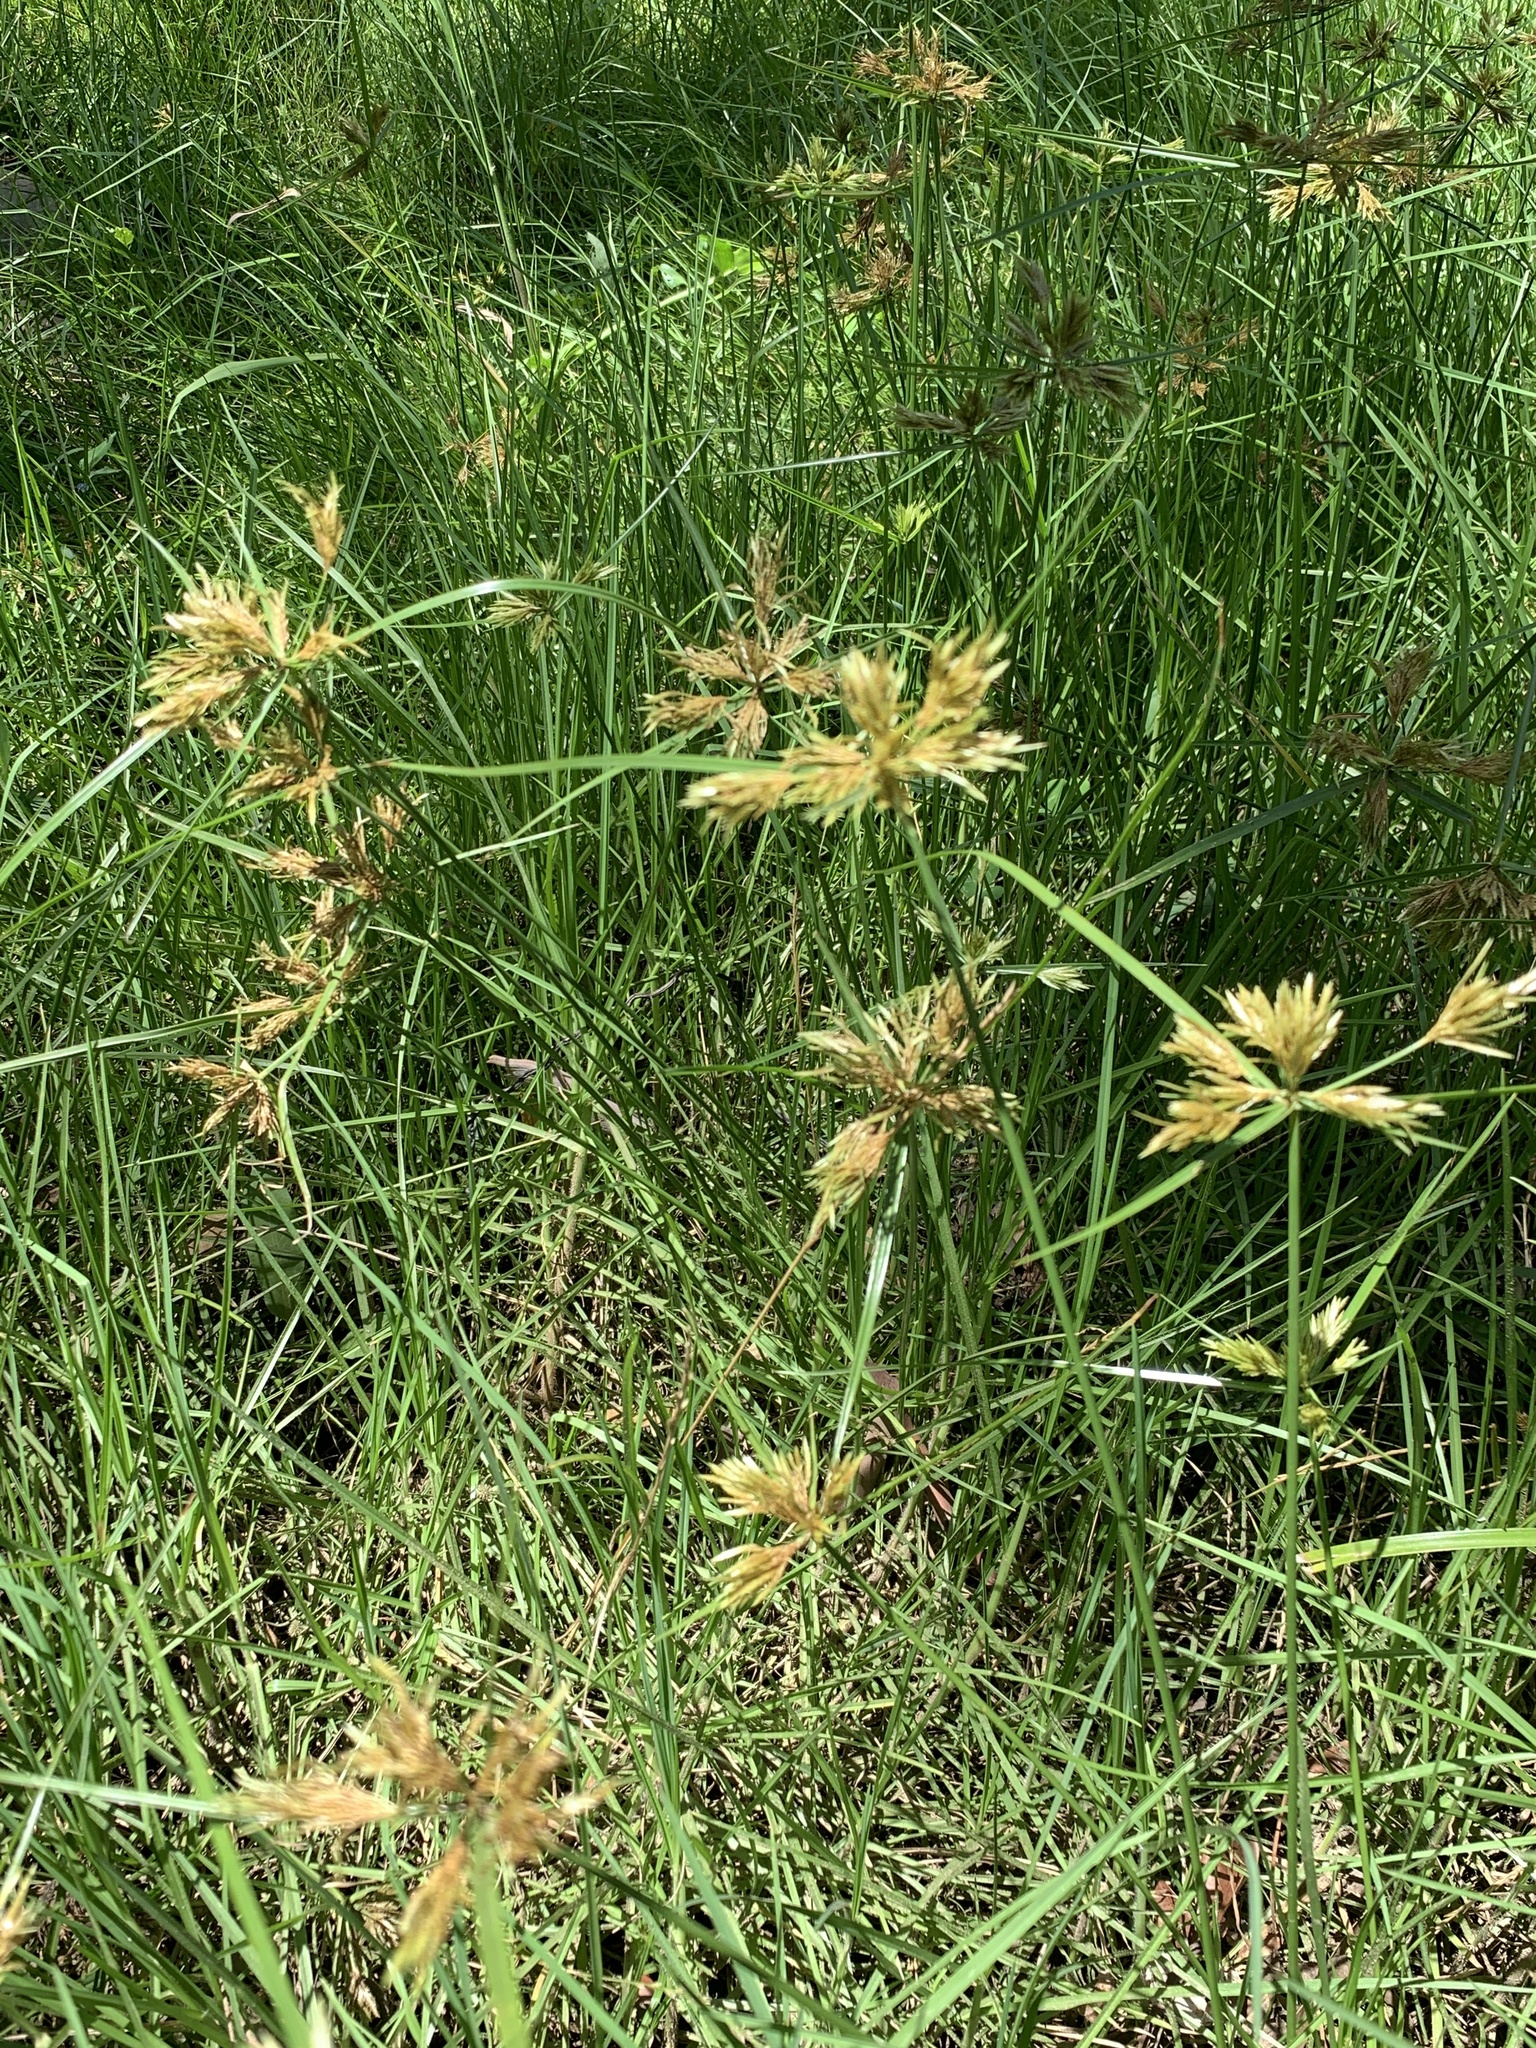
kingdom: Plantae
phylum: Tracheophyta
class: Liliopsida
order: Poales
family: Cyperaceae
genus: Cyperus
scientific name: Cyperus polystachyos
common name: Bunchy flat sedge
